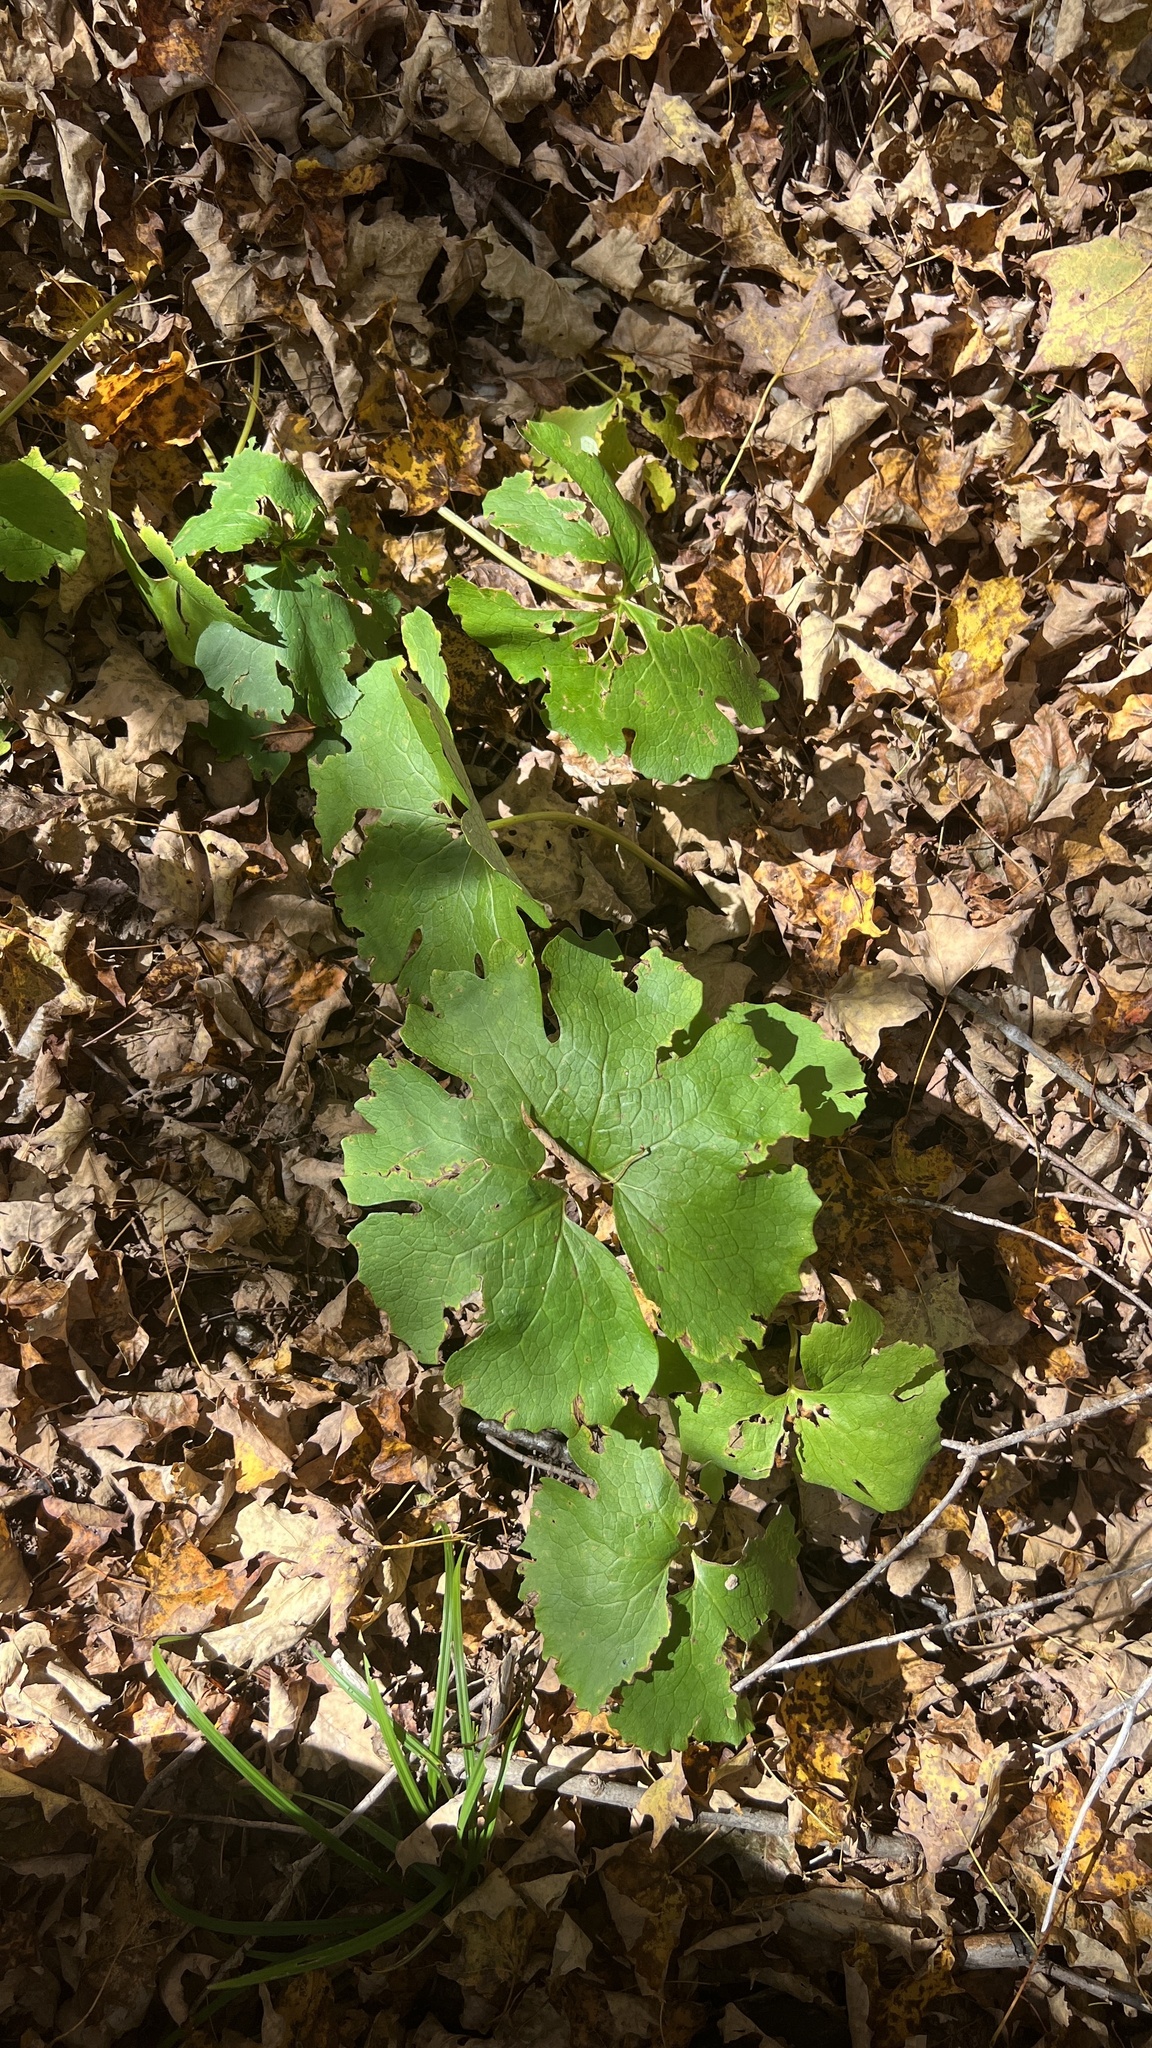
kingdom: Plantae
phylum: Tracheophyta
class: Magnoliopsida
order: Ranunculales
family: Papaveraceae
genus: Sanguinaria
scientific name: Sanguinaria canadensis
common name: Bloodroot
